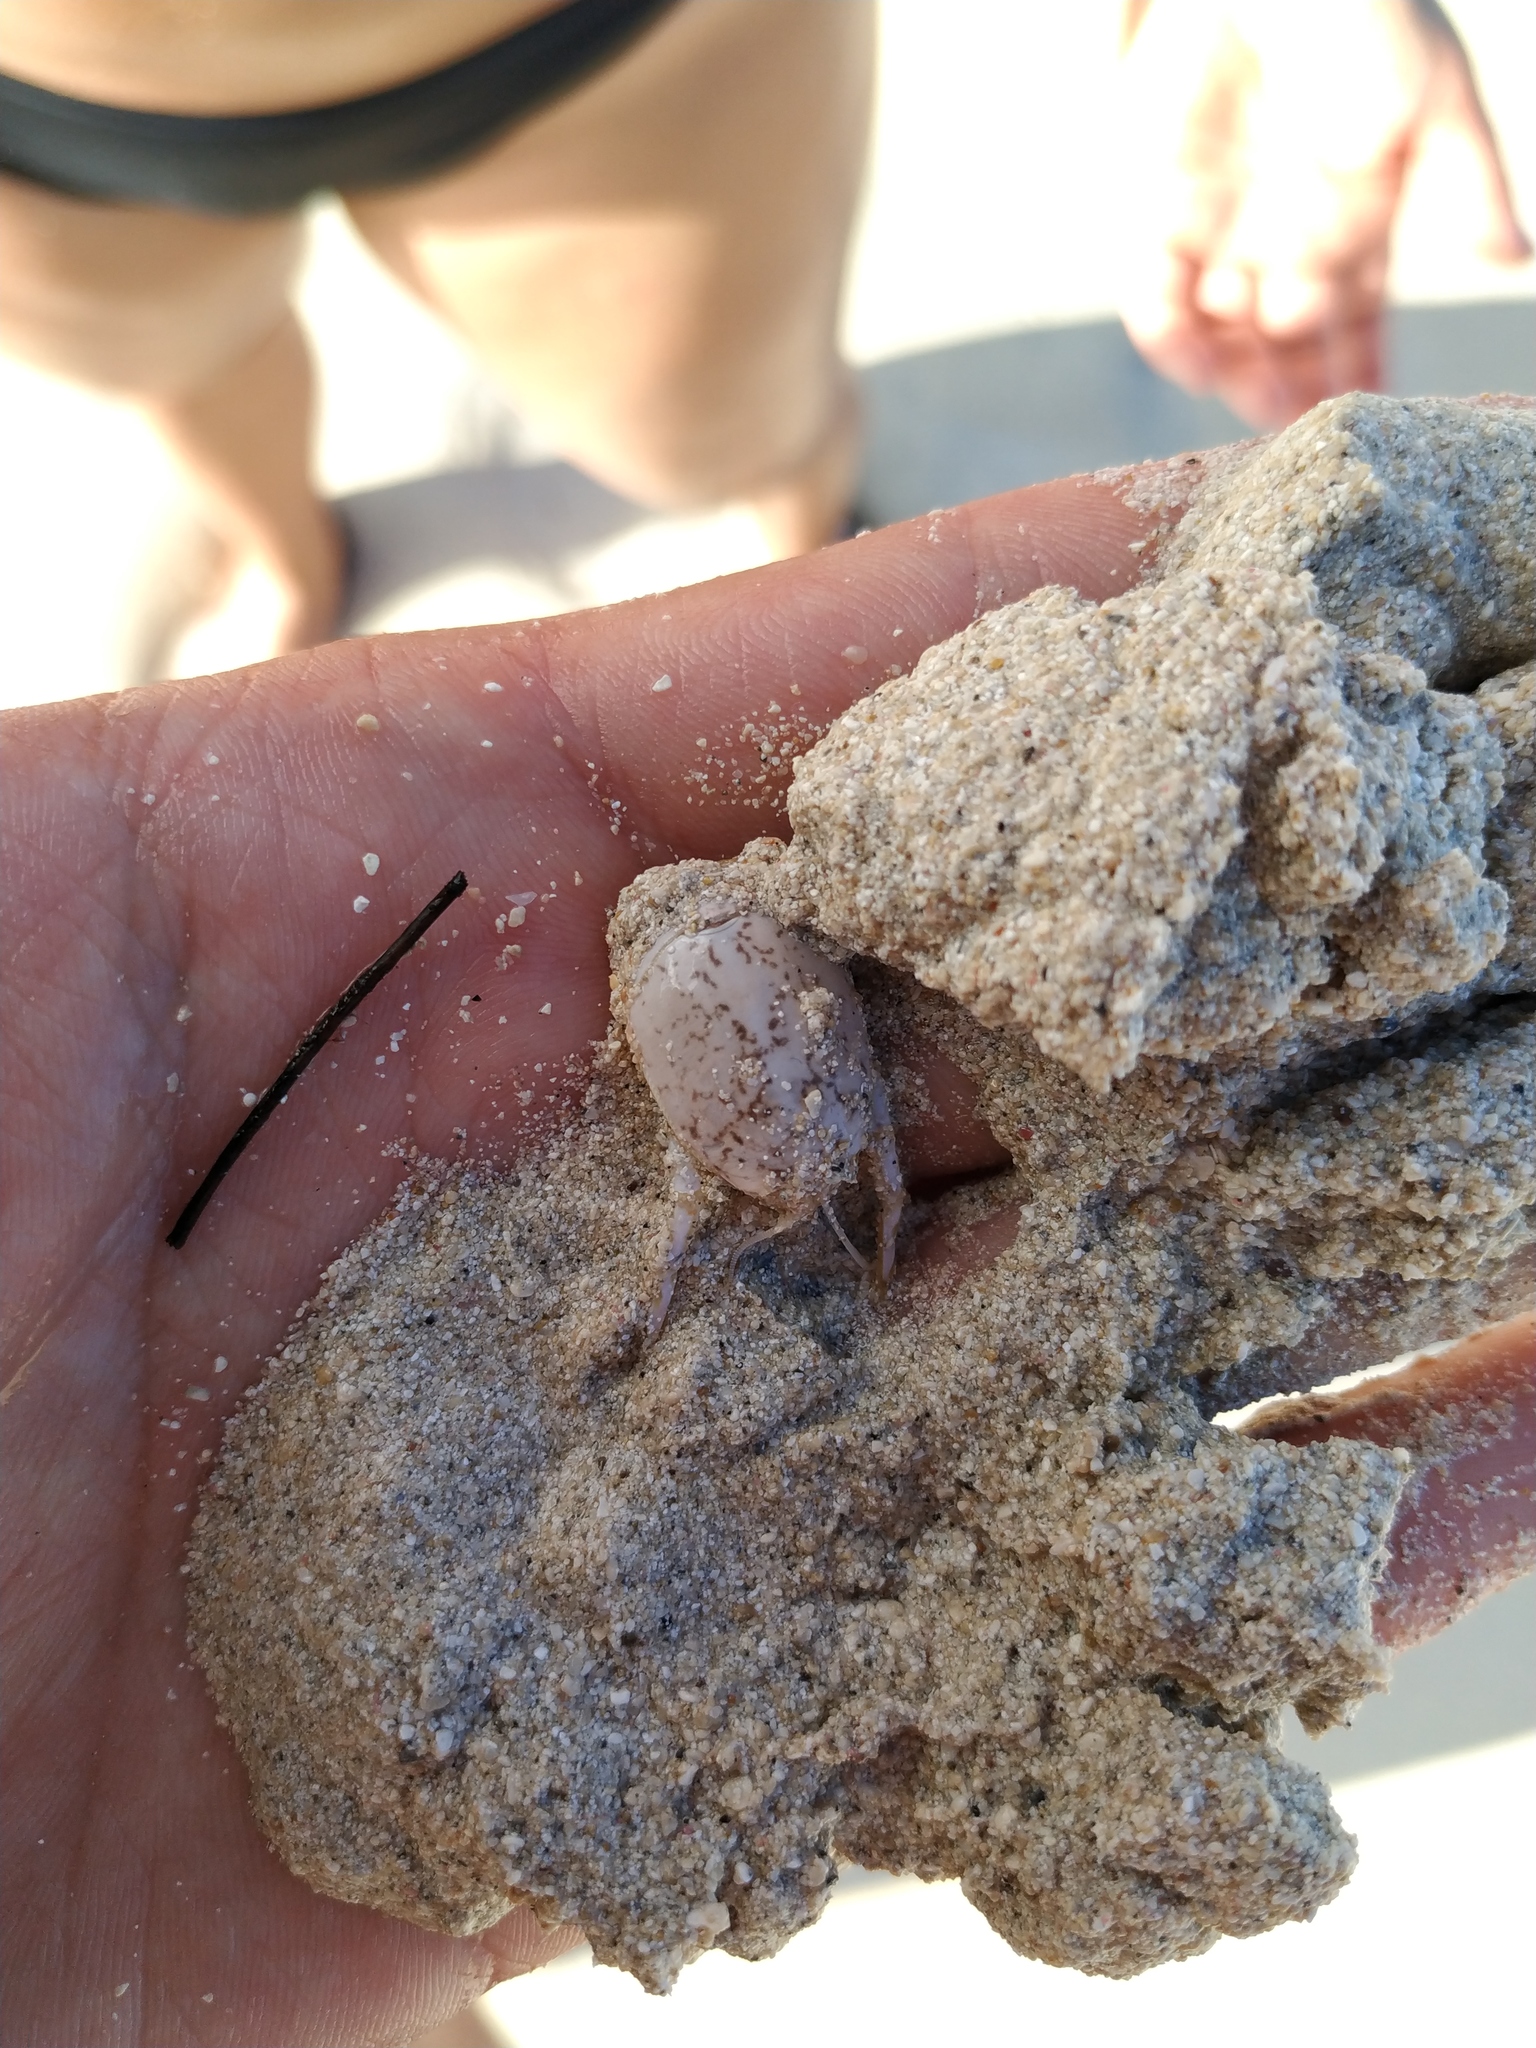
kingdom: Animalia
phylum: Arthropoda
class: Malacostraca
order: Decapoda
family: Hippidae
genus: Hippa
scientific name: Hippa testudinaria
